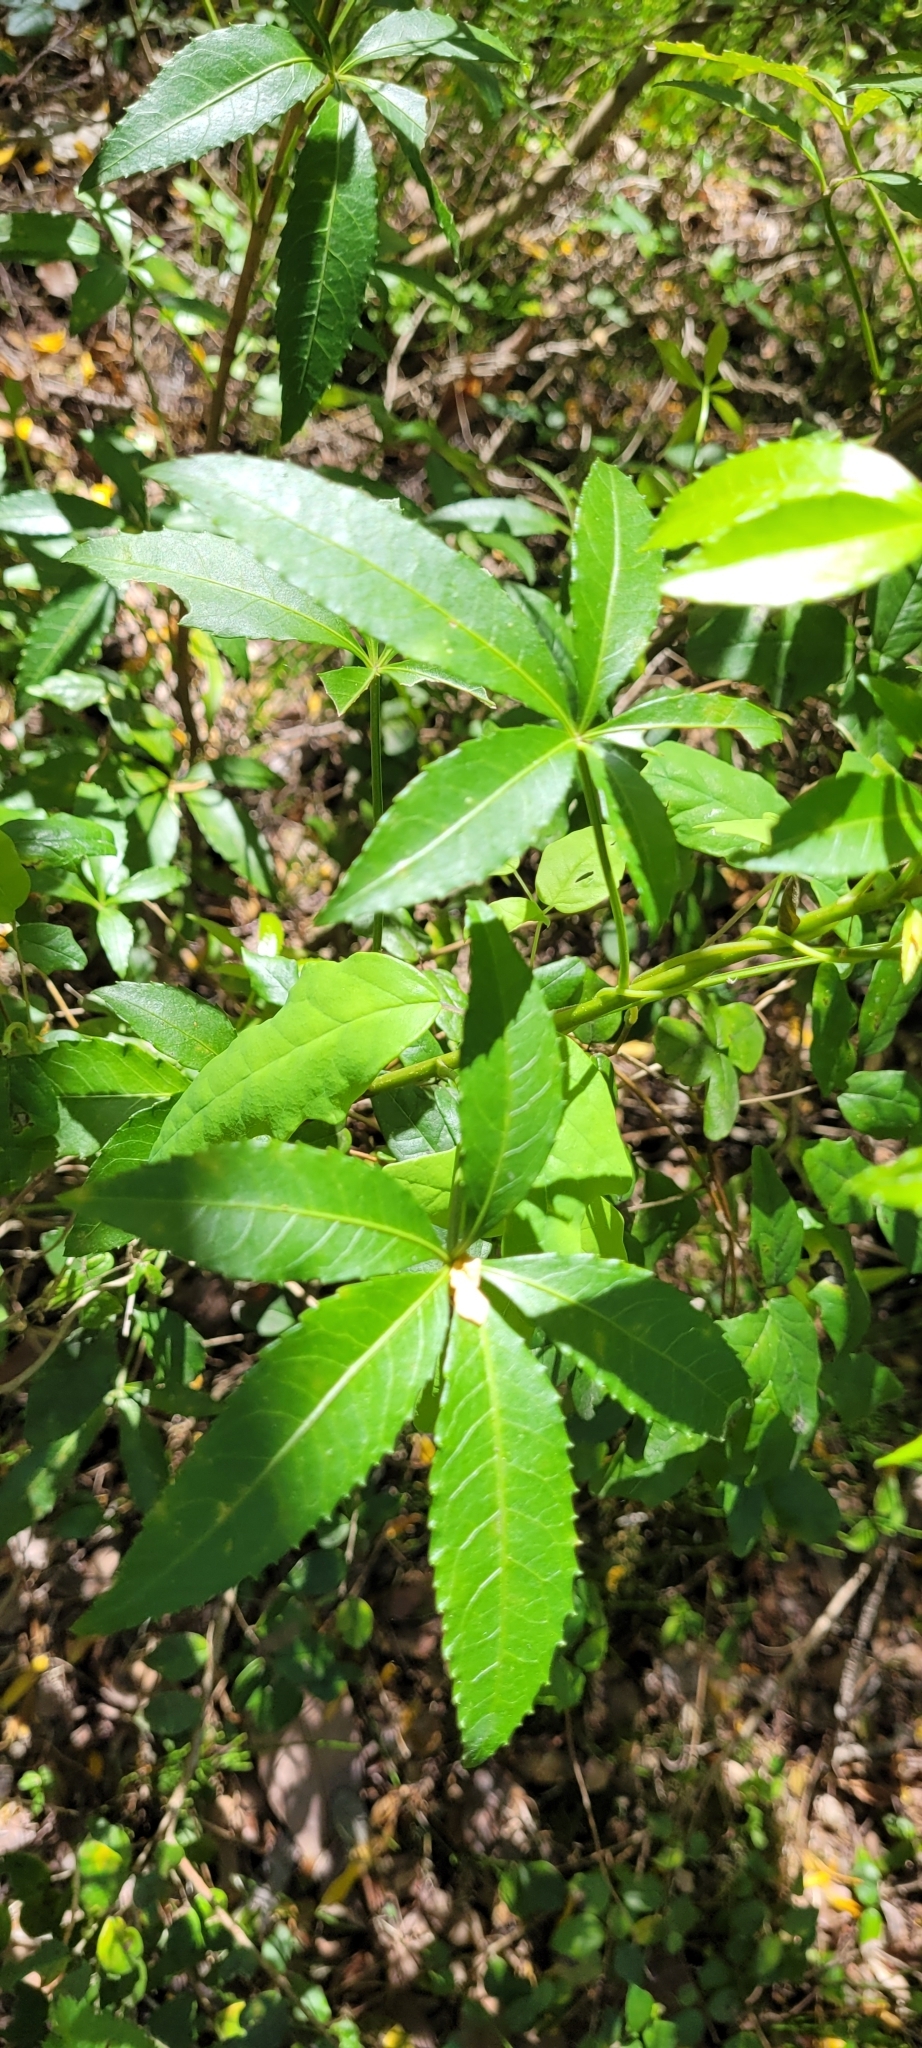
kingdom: Plantae
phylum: Tracheophyta
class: Magnoliopsida
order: Apiales
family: Araliaceae
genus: Raukaua
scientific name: Raukaua laetevirens
